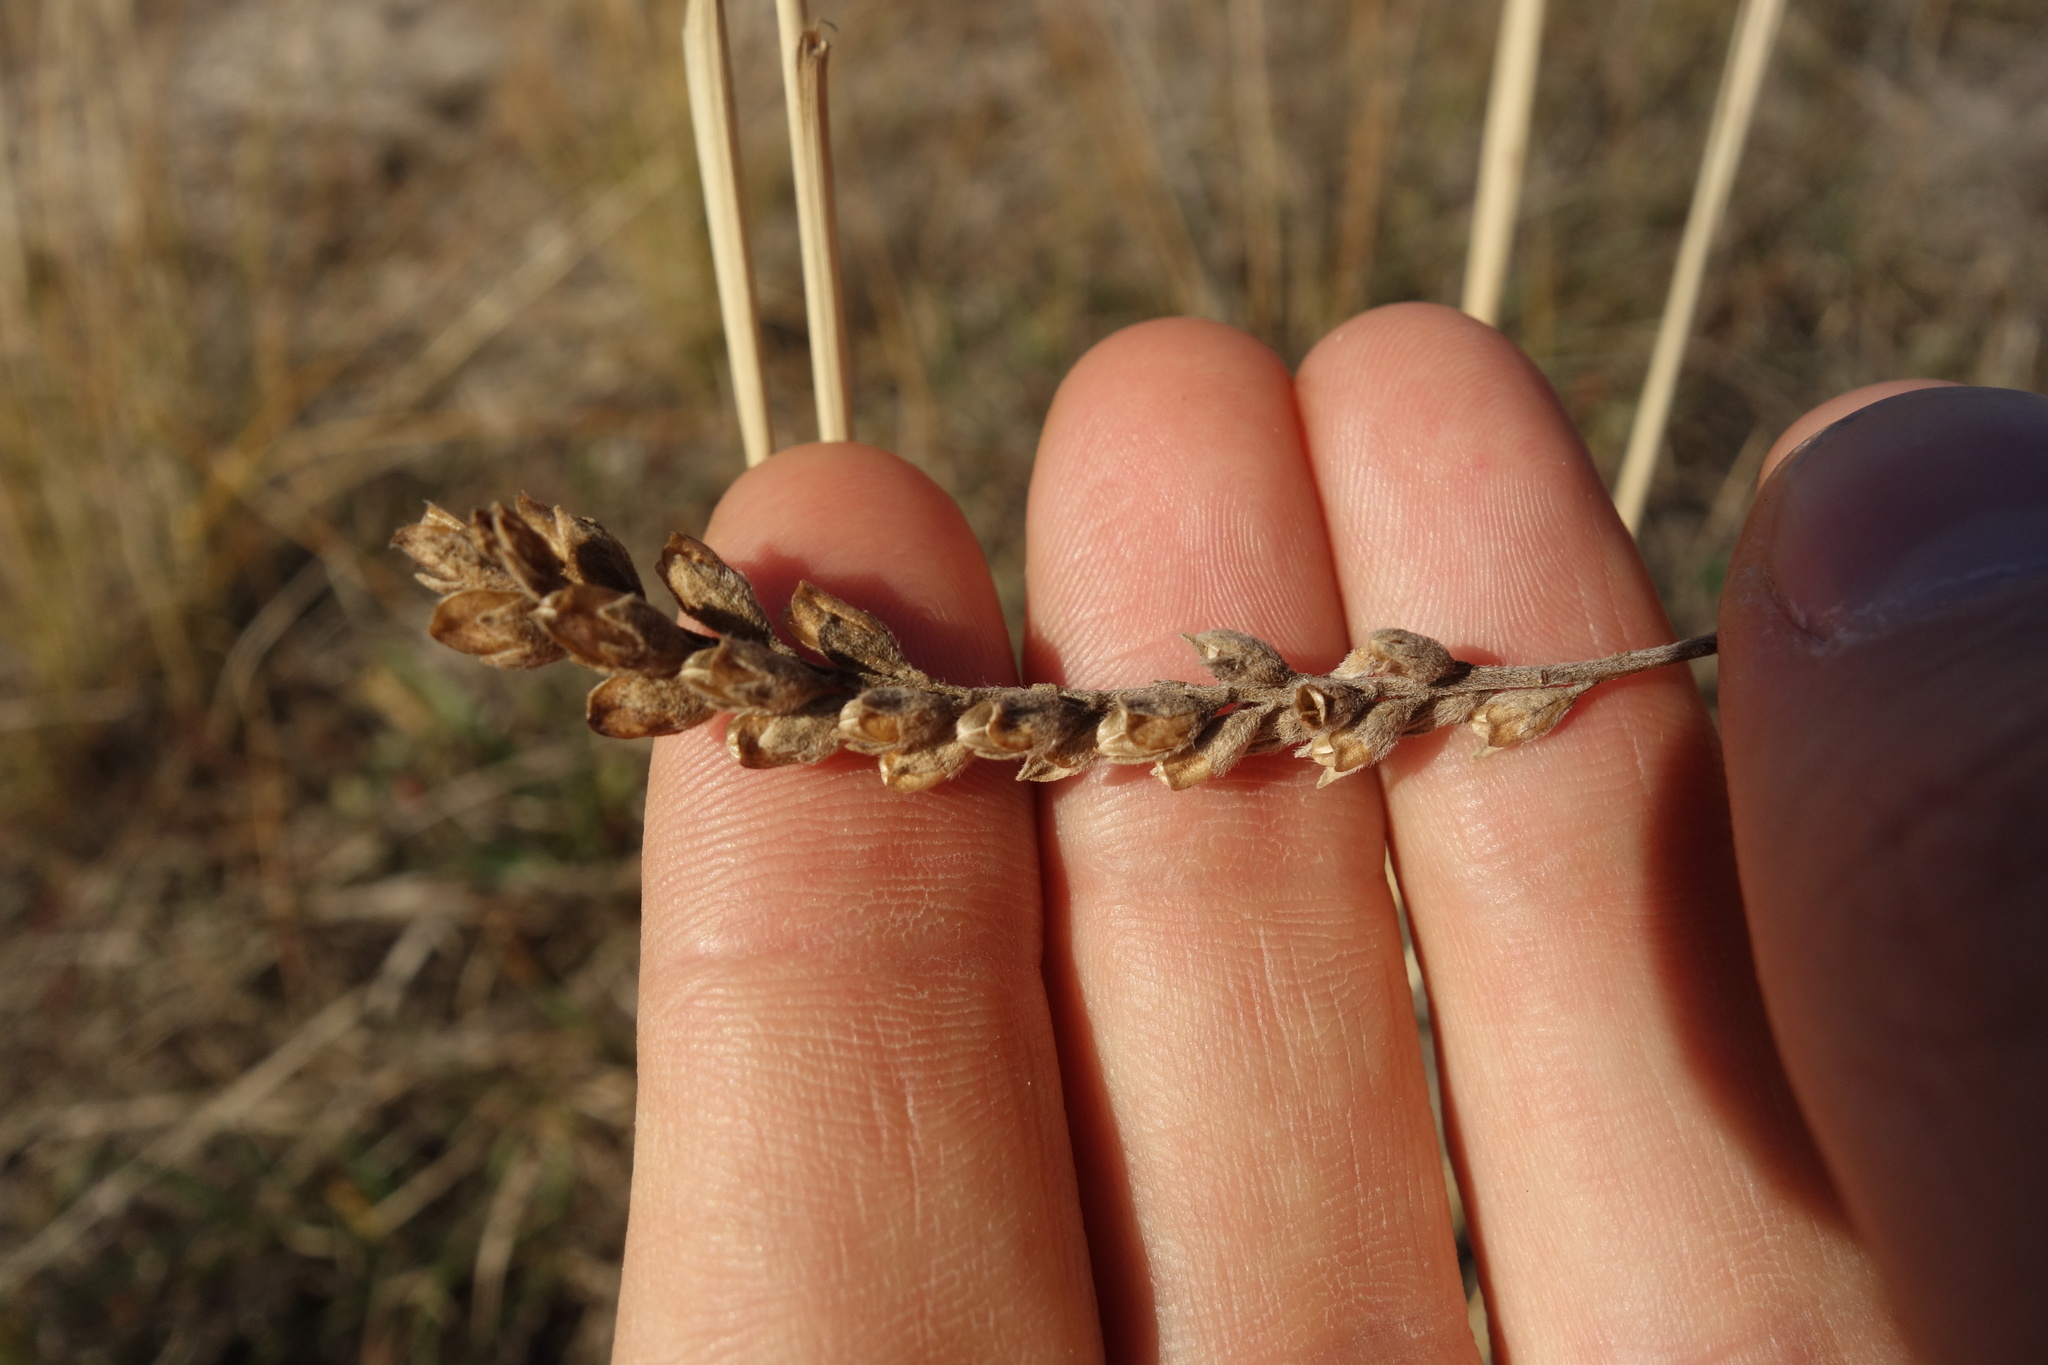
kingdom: Plantae
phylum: Tracheophyta
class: Magnoliopsida
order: Lamiales
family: Orobanchaceae
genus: Odontites
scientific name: Odontites vulgaris
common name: Broomrape
